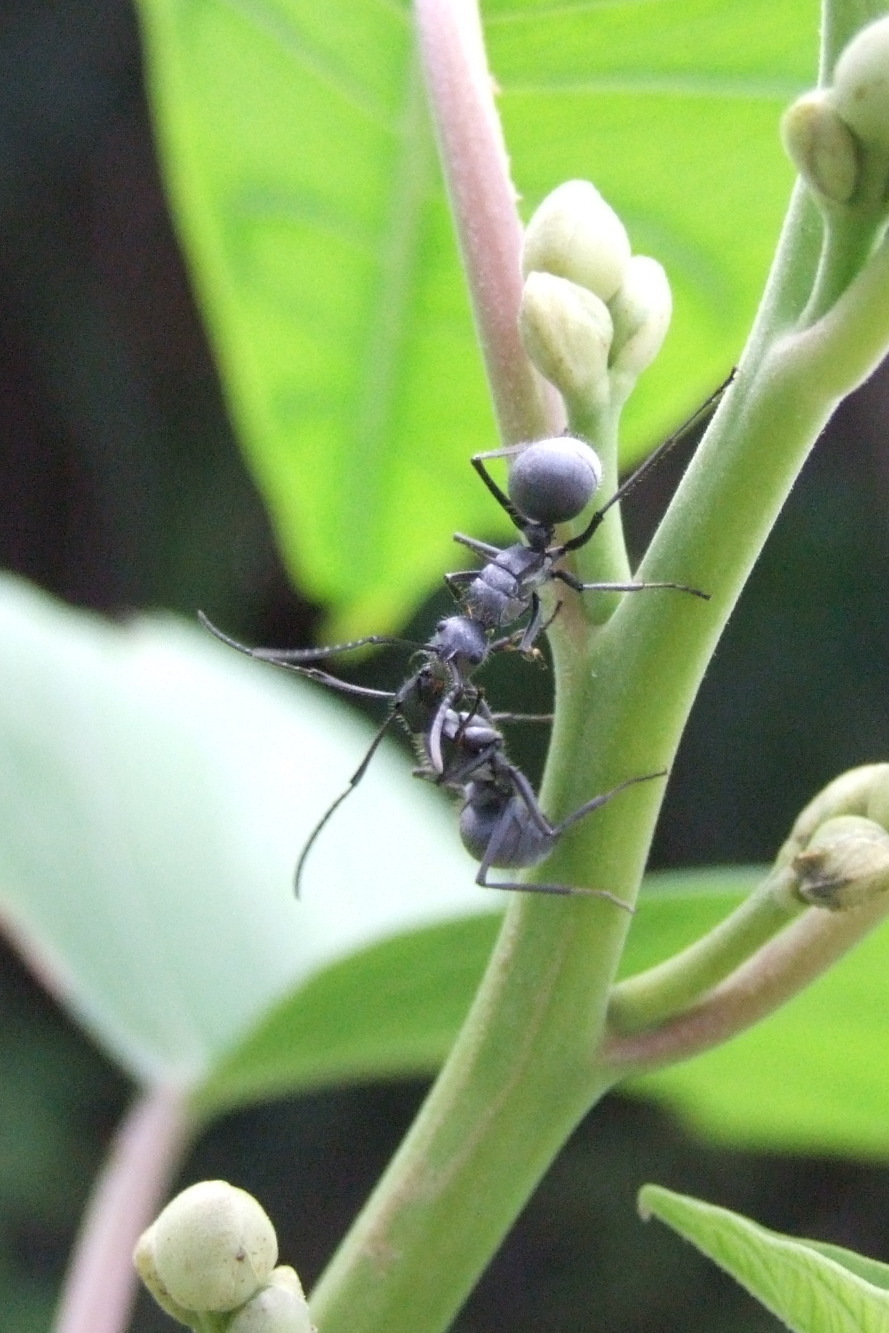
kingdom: Animalia
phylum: Arthropoda
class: Insecta
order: Hymenoptera
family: Formicidae
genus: Polyrhachis
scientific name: Polyrhachis schistacea
